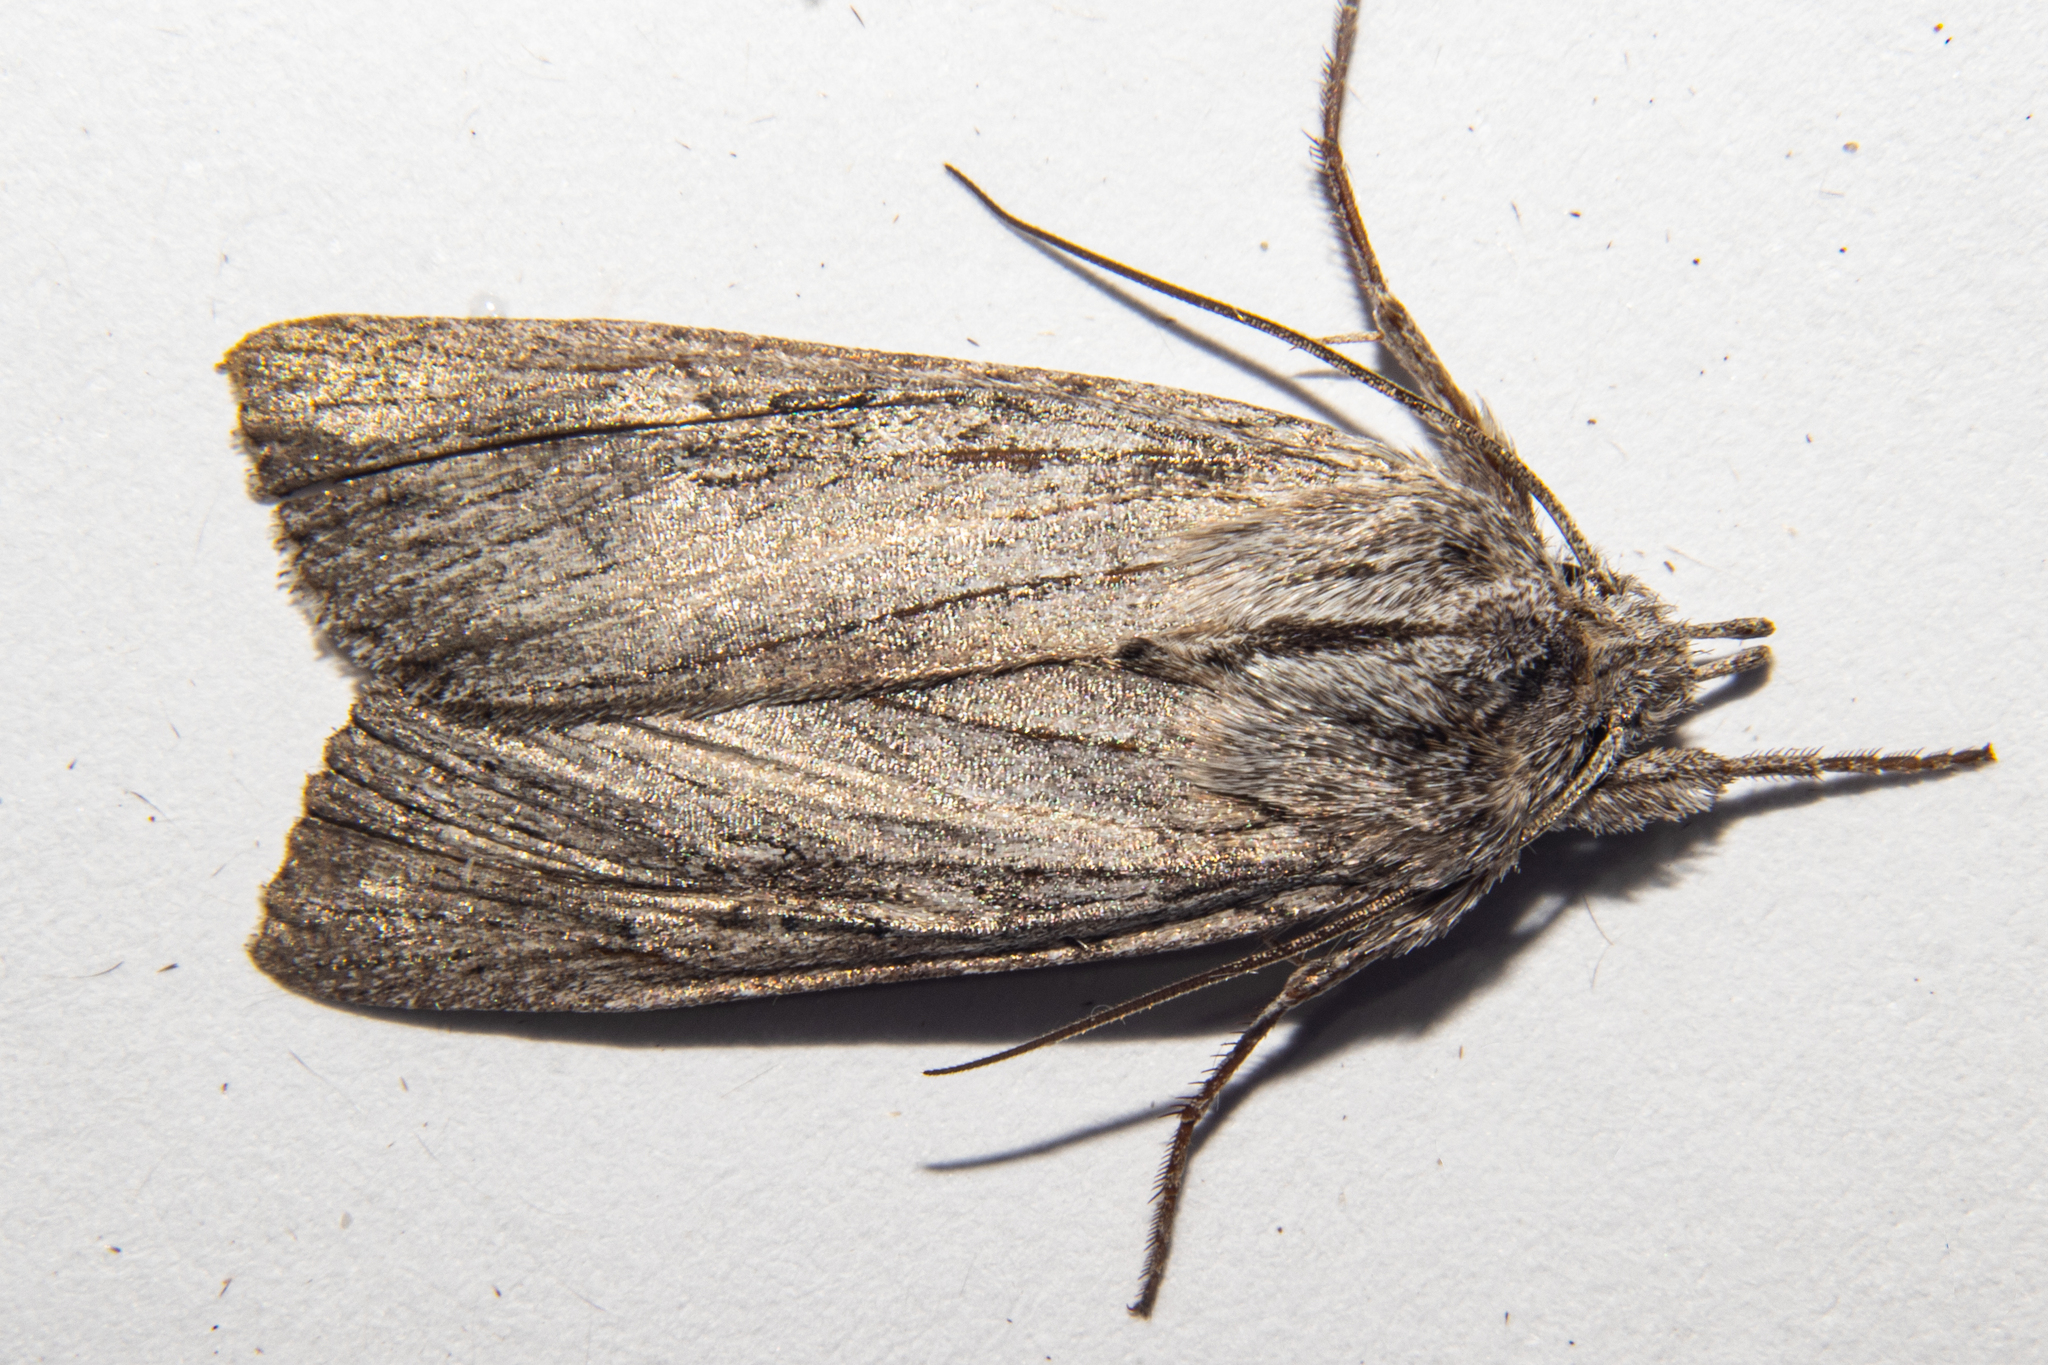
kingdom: Animalia
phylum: Arthropoda
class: Insecta
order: Lepidoptera
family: Noctuidae
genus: Physetica
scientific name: Physetica phricias
